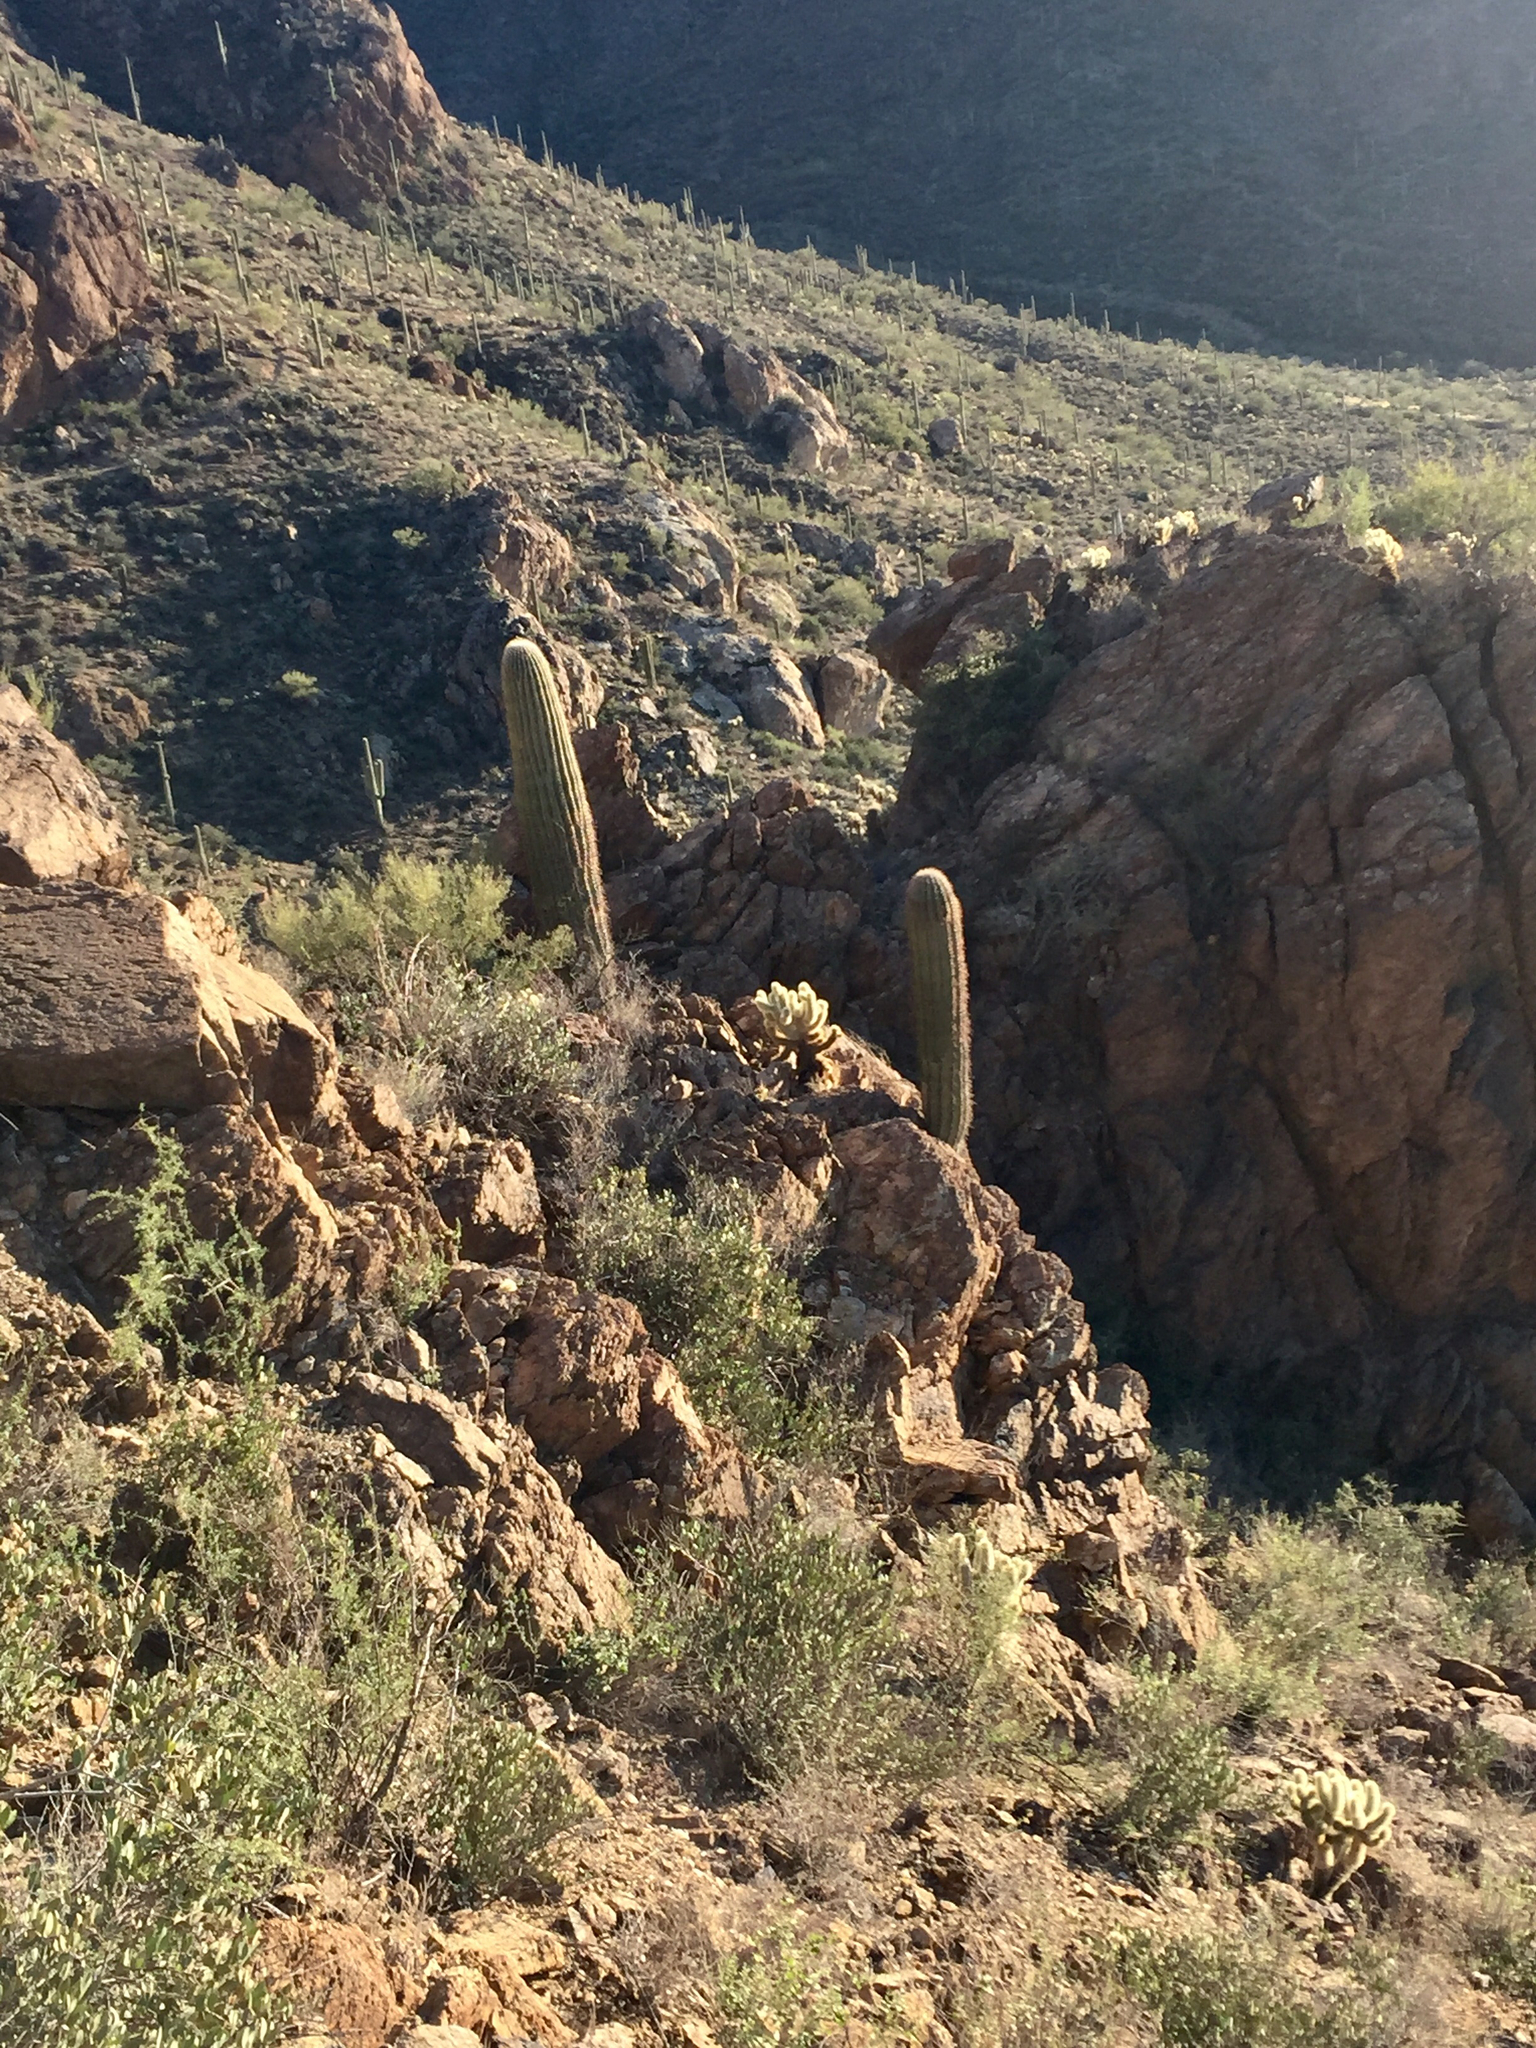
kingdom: Plantae
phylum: Tracheophyta
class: Magnoliopsida
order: Caryophyllales
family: Cactaceae
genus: Carnegiea
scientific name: Carnegiea gigantea
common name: Saguaro
